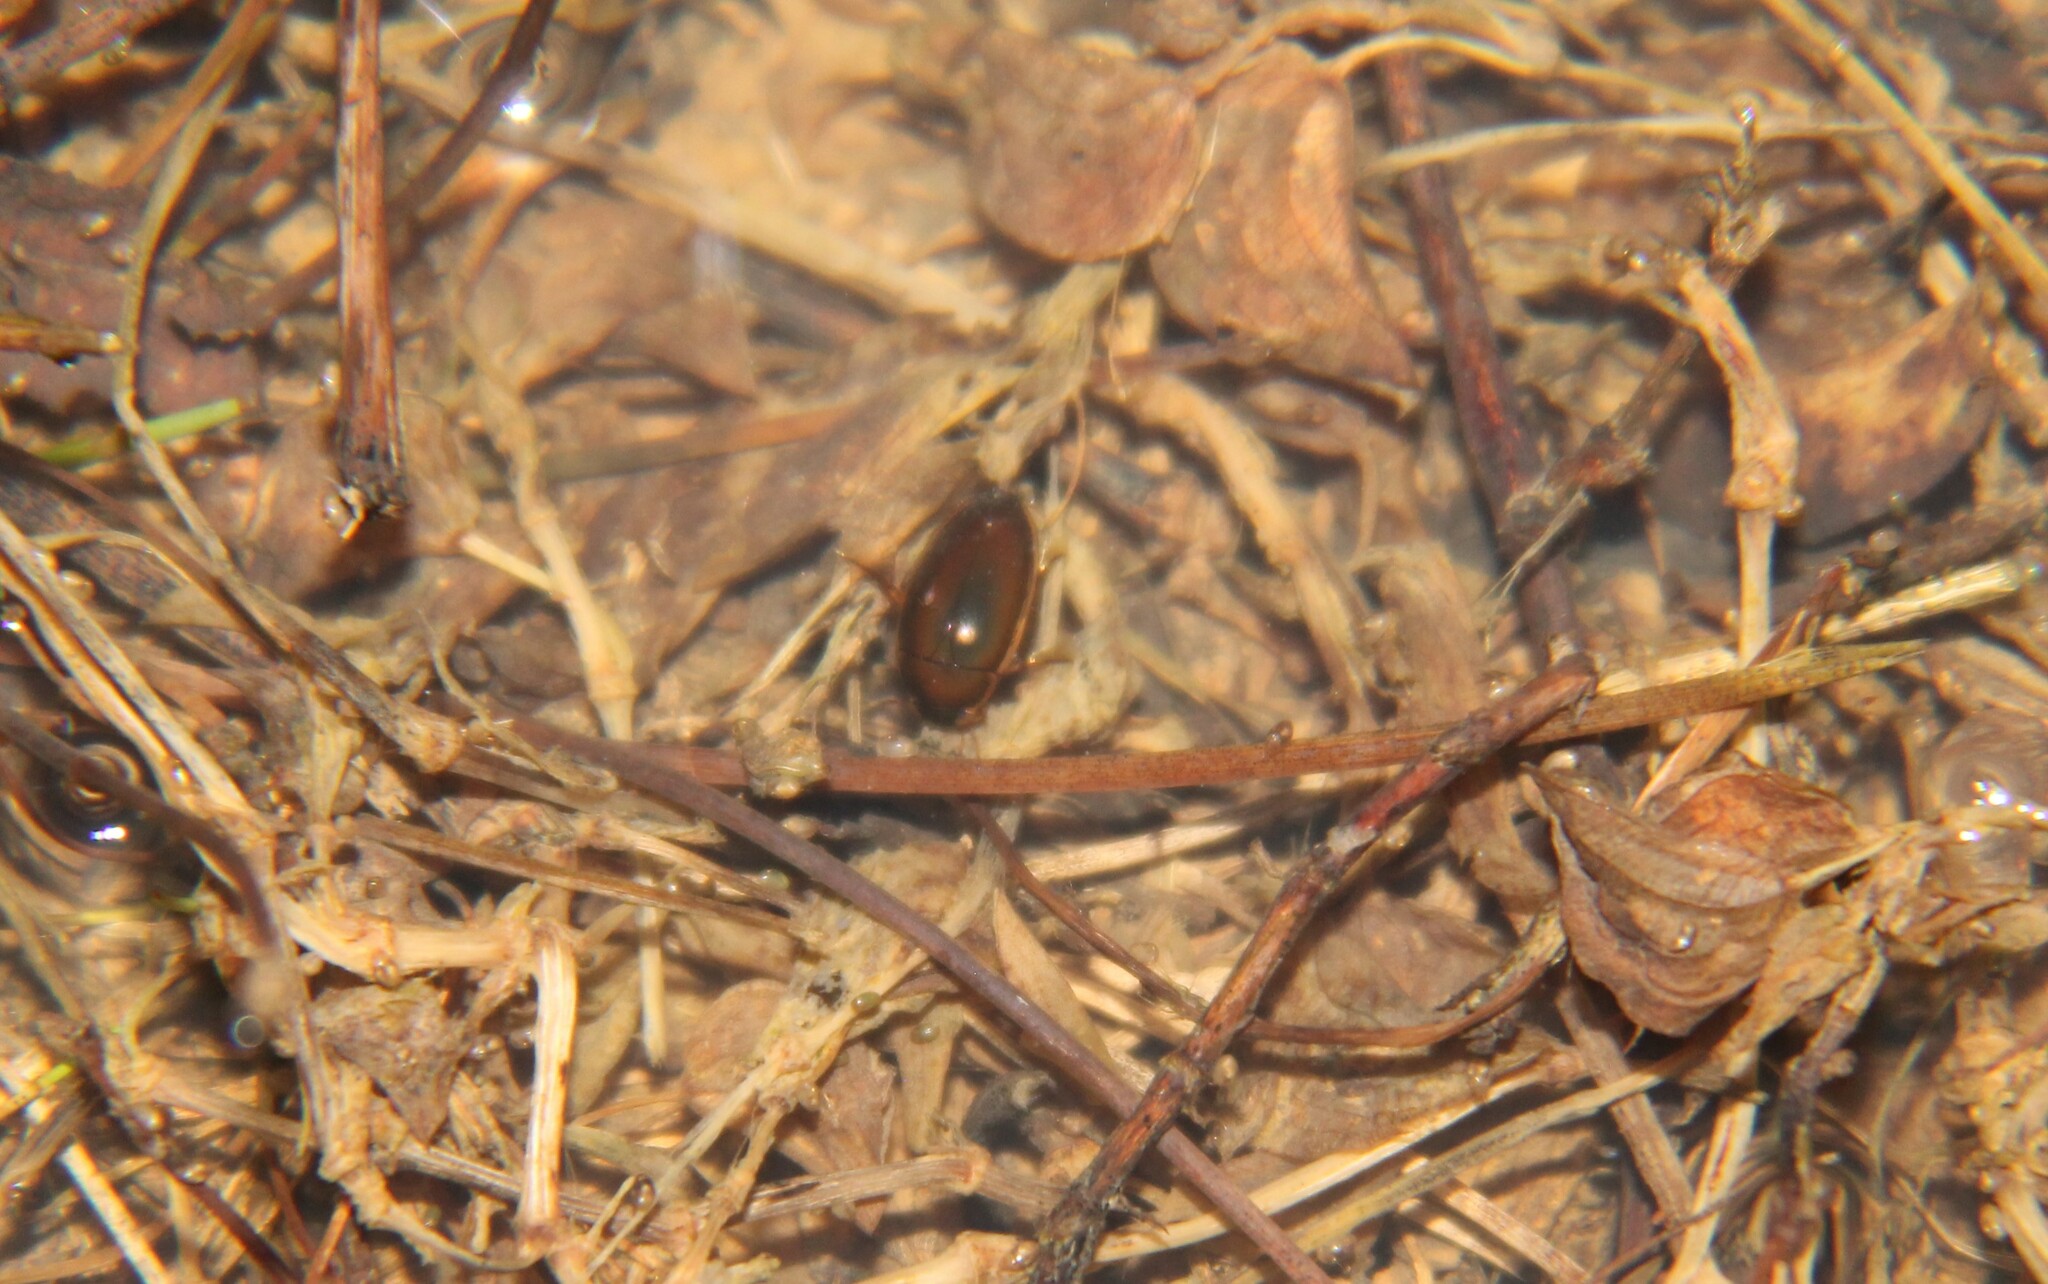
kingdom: Animalia
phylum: Arthropoda
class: Insecta
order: Coleoptera
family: Hydrophilidae
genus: Tropisternus
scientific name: Tropisternus lateralis
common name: Lateral-banded water scavenger beetle
